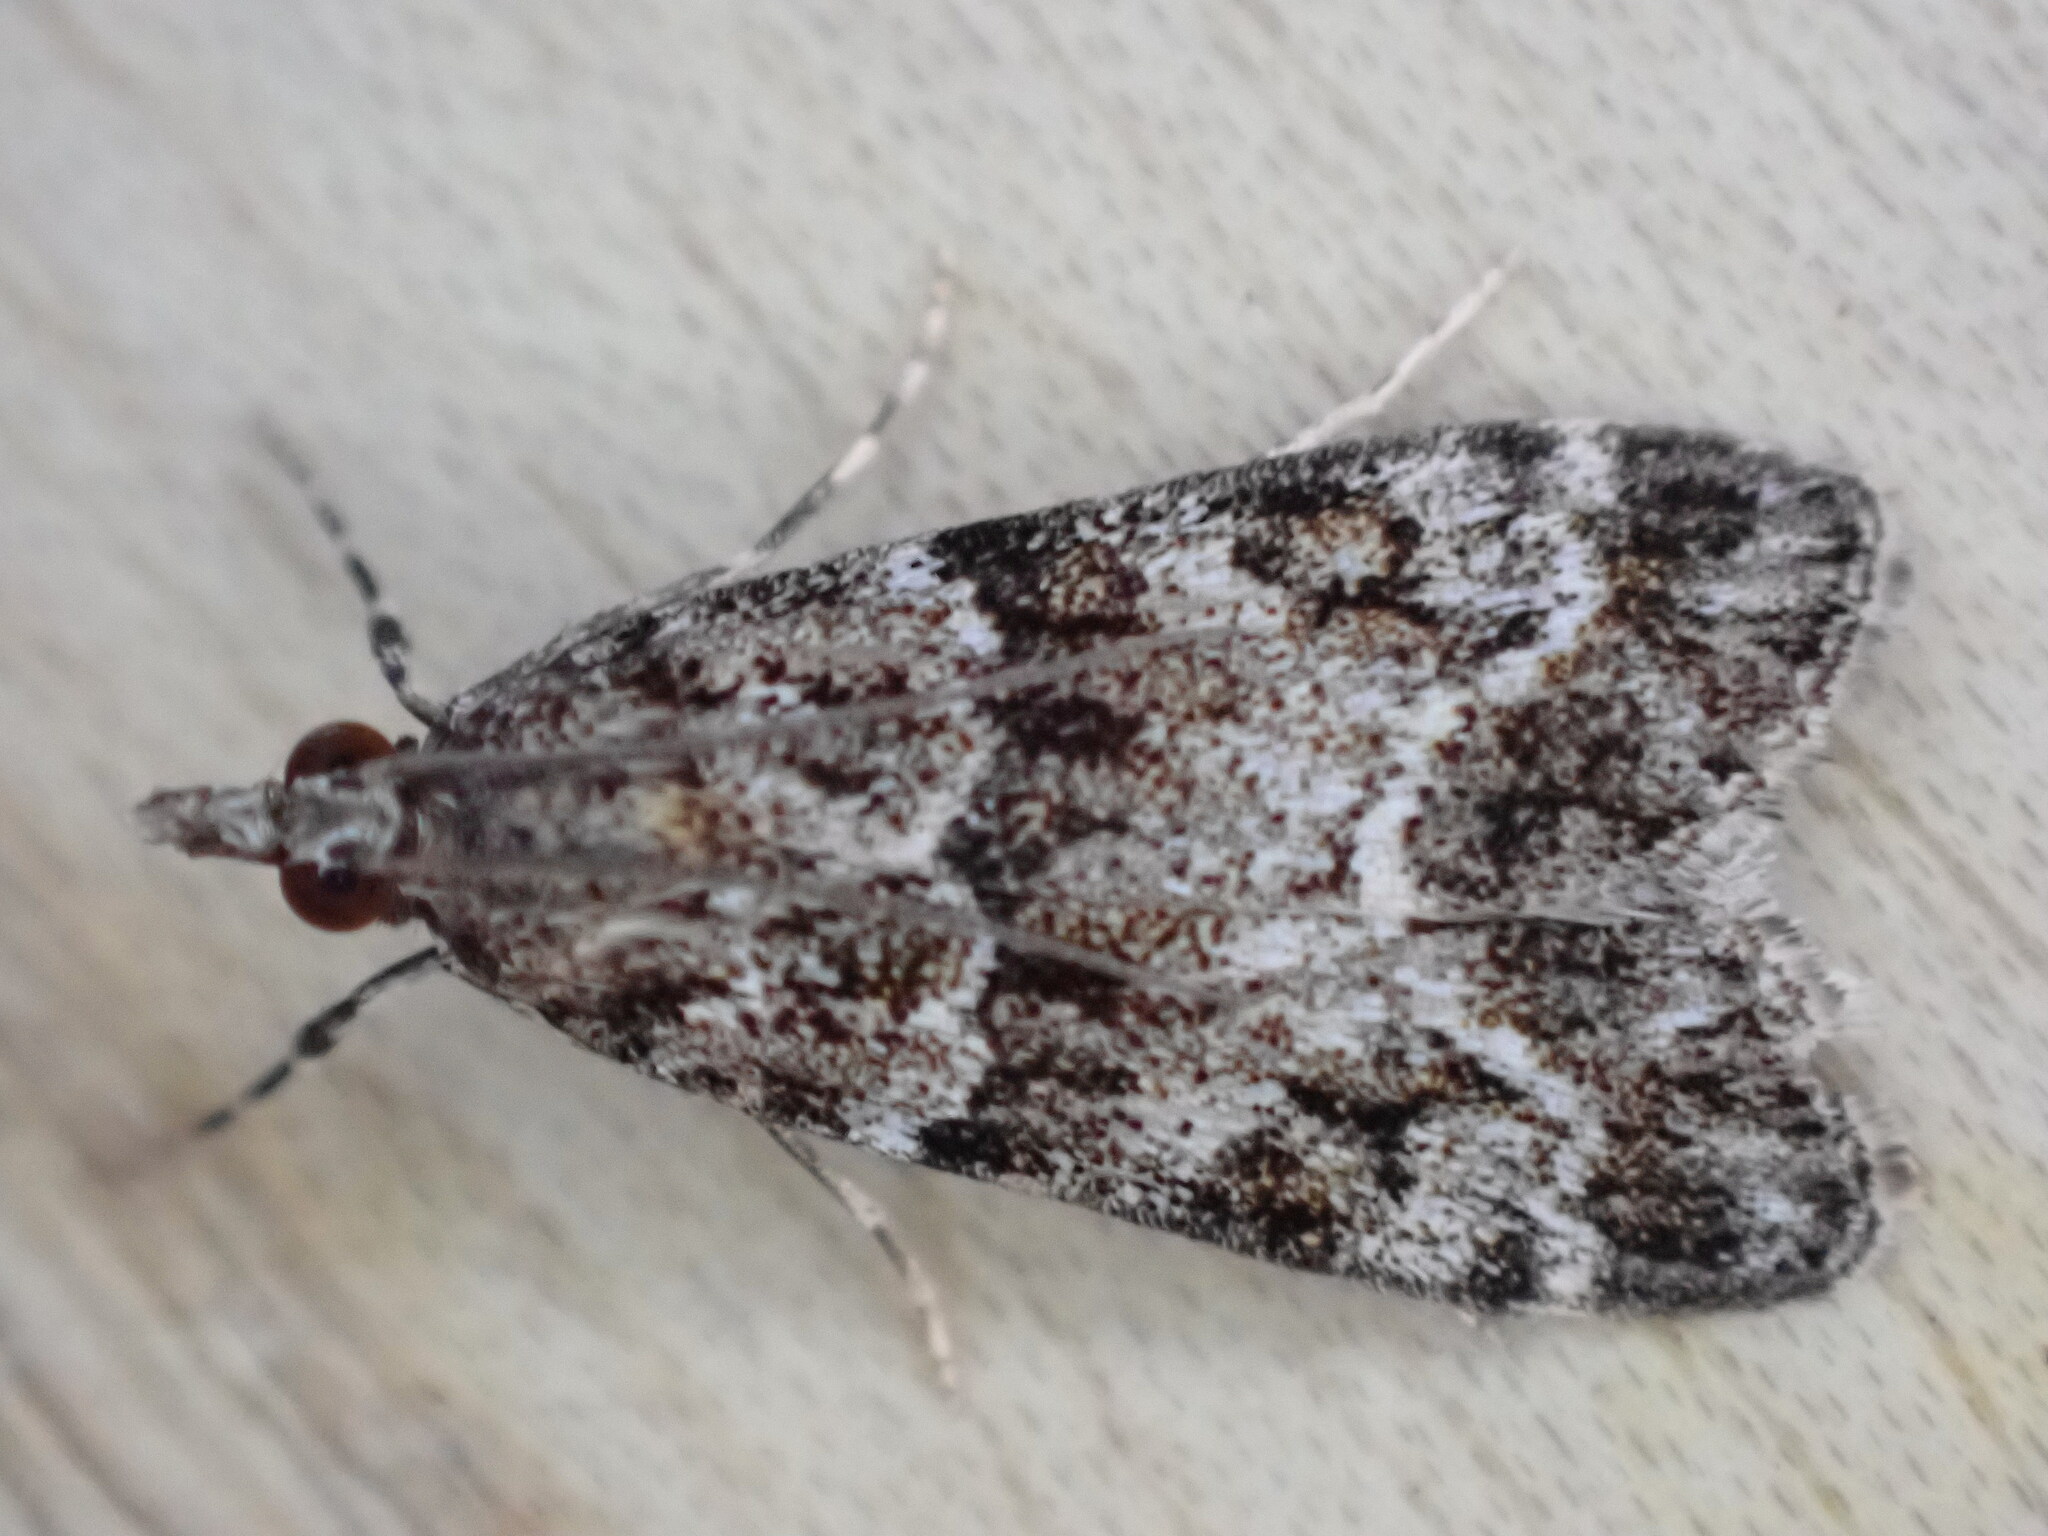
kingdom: Animalia
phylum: Arthropoda
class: Insecta
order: Lepidoptera
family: Crambidae
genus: Eudonia
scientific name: Eudonia mercurella
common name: Small grey
